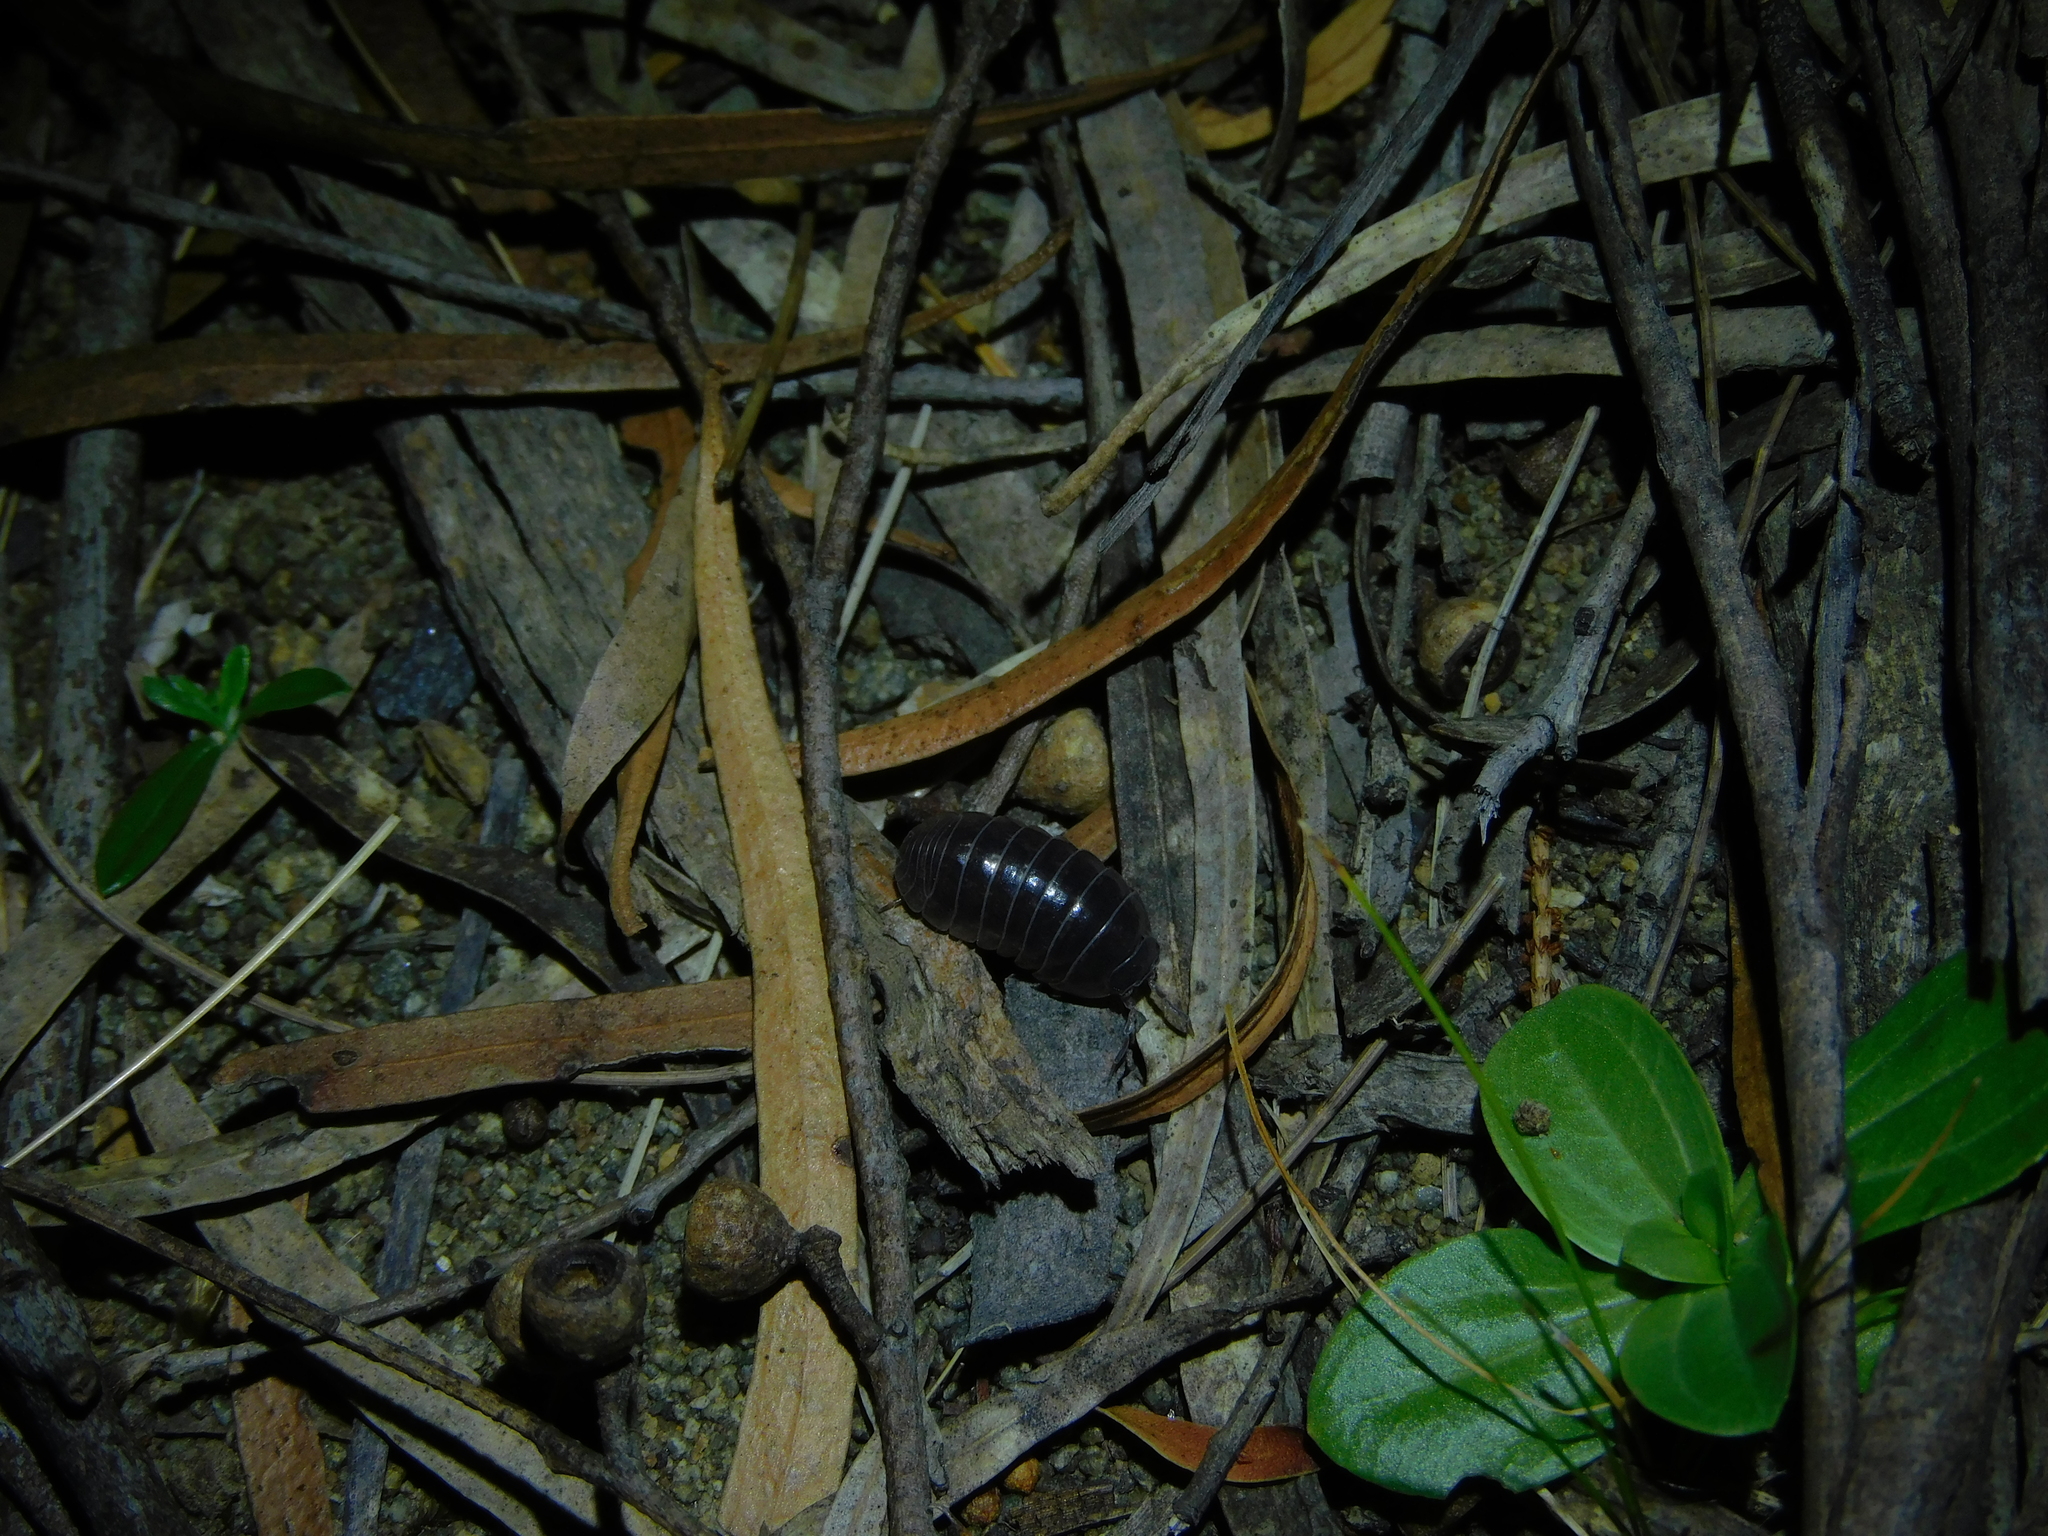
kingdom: Animalia
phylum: Arthropoda
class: Malacostraca
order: Isopoda
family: Armadillidiidae
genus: Armadillidium
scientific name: Armadillidium vulgare
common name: Common pill woodlouse
